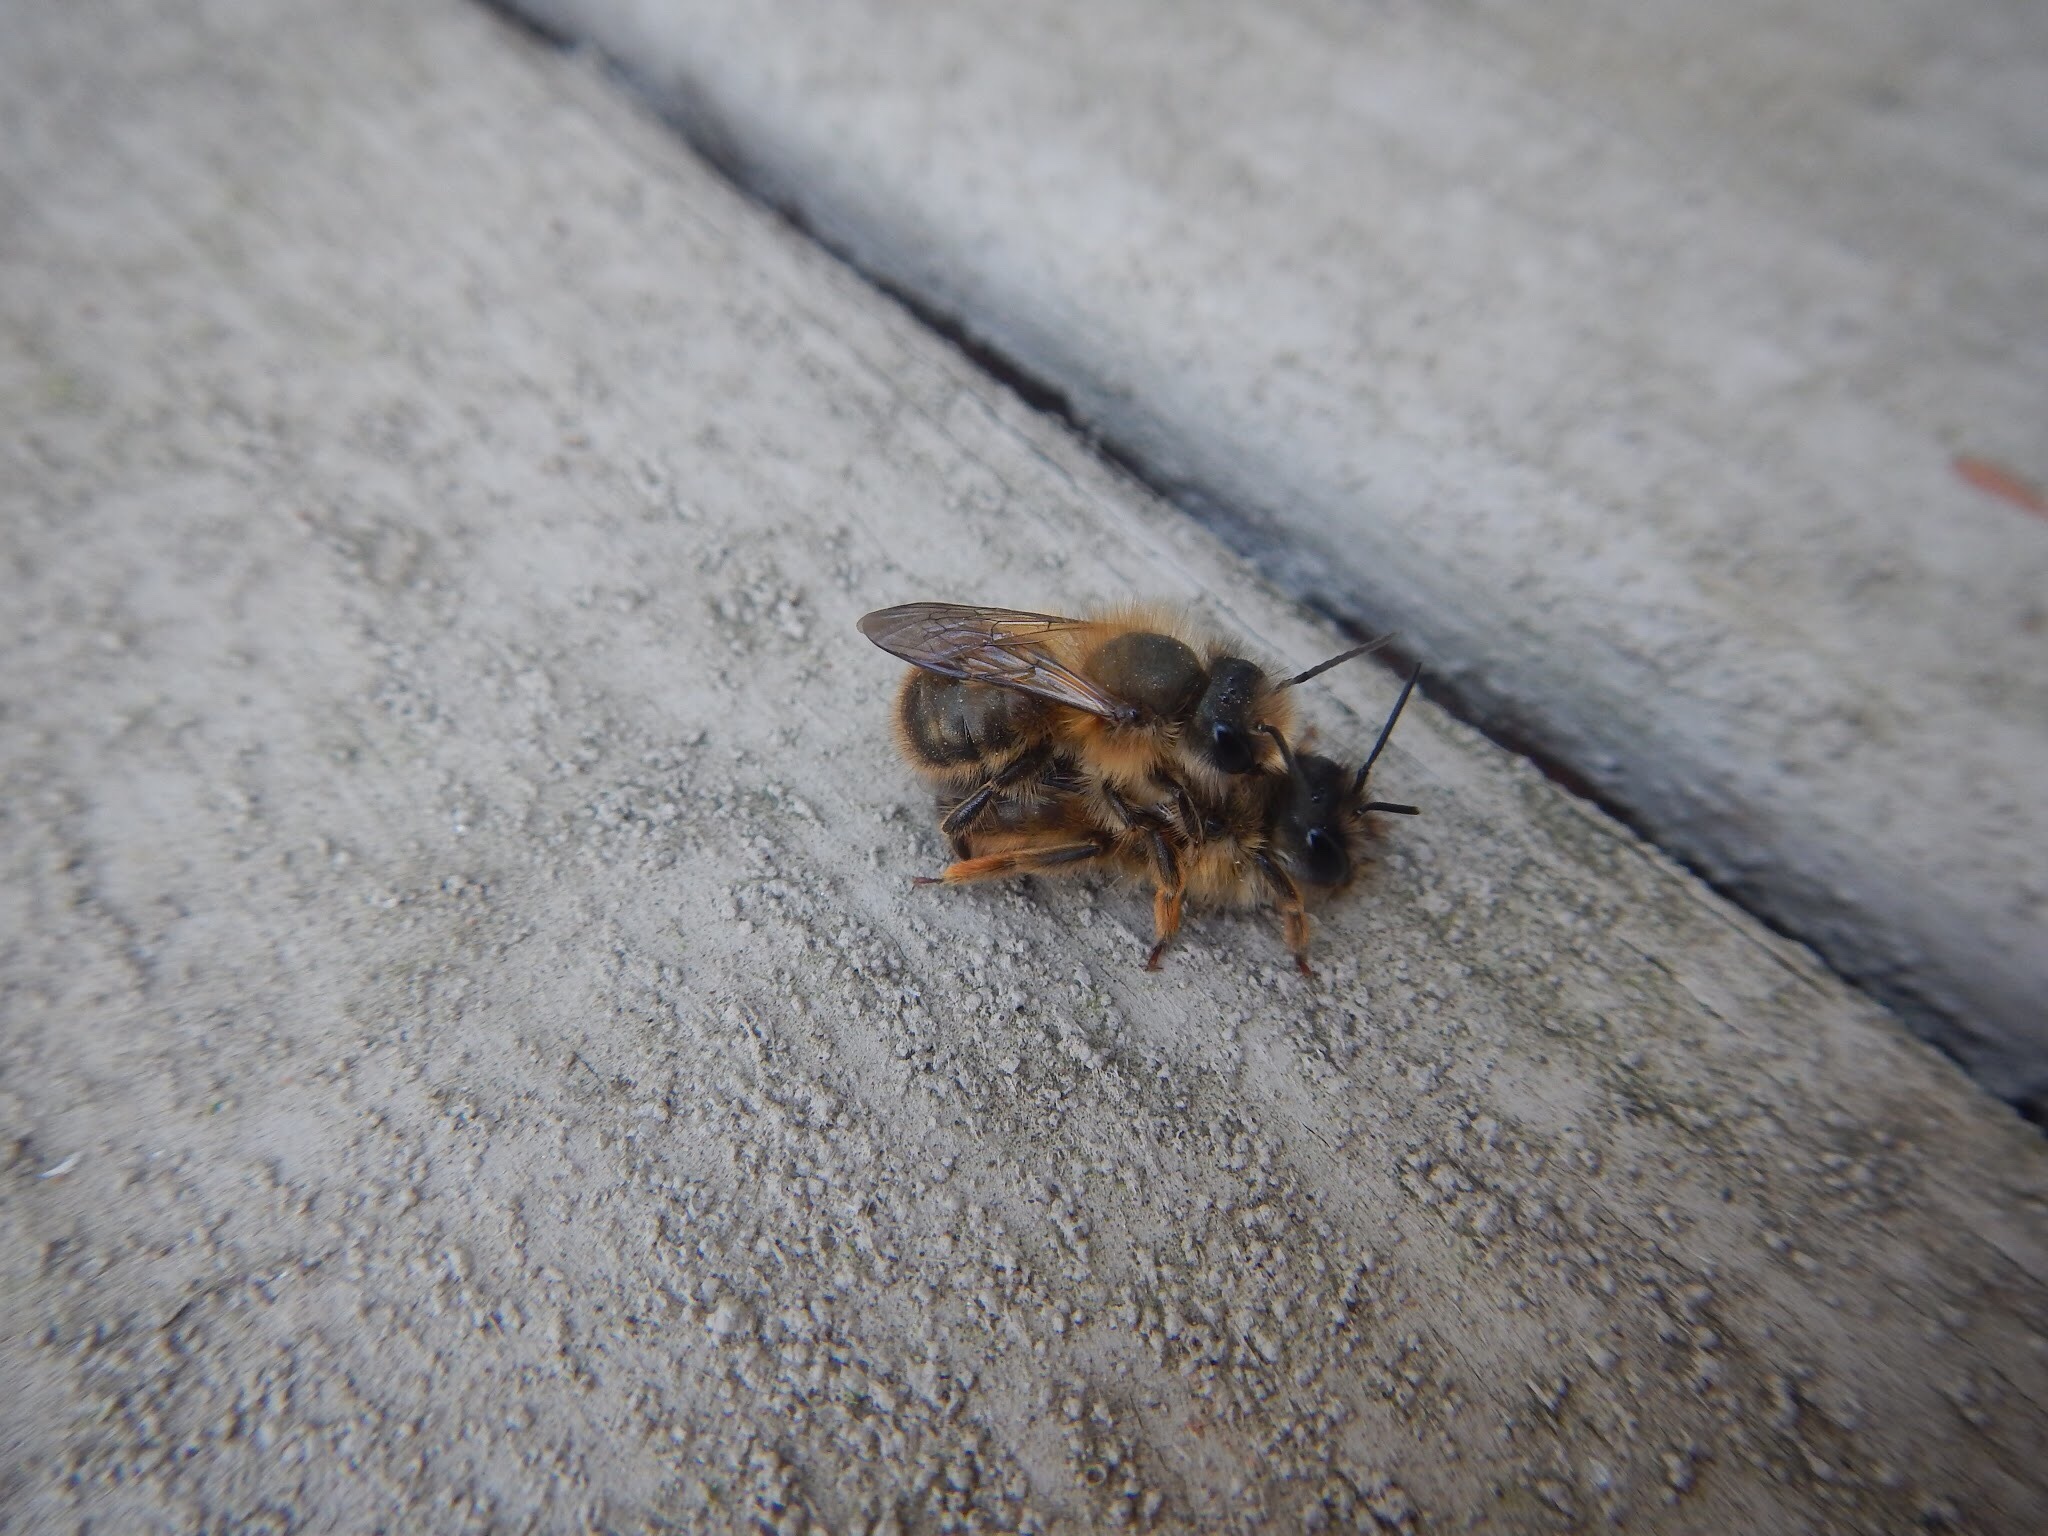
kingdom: Animalia
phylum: Arthropoda
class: Insecta
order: Hymenoptera
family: Megachilidae
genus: Osmia
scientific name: Osmia taurus
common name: Taurus mason bee
